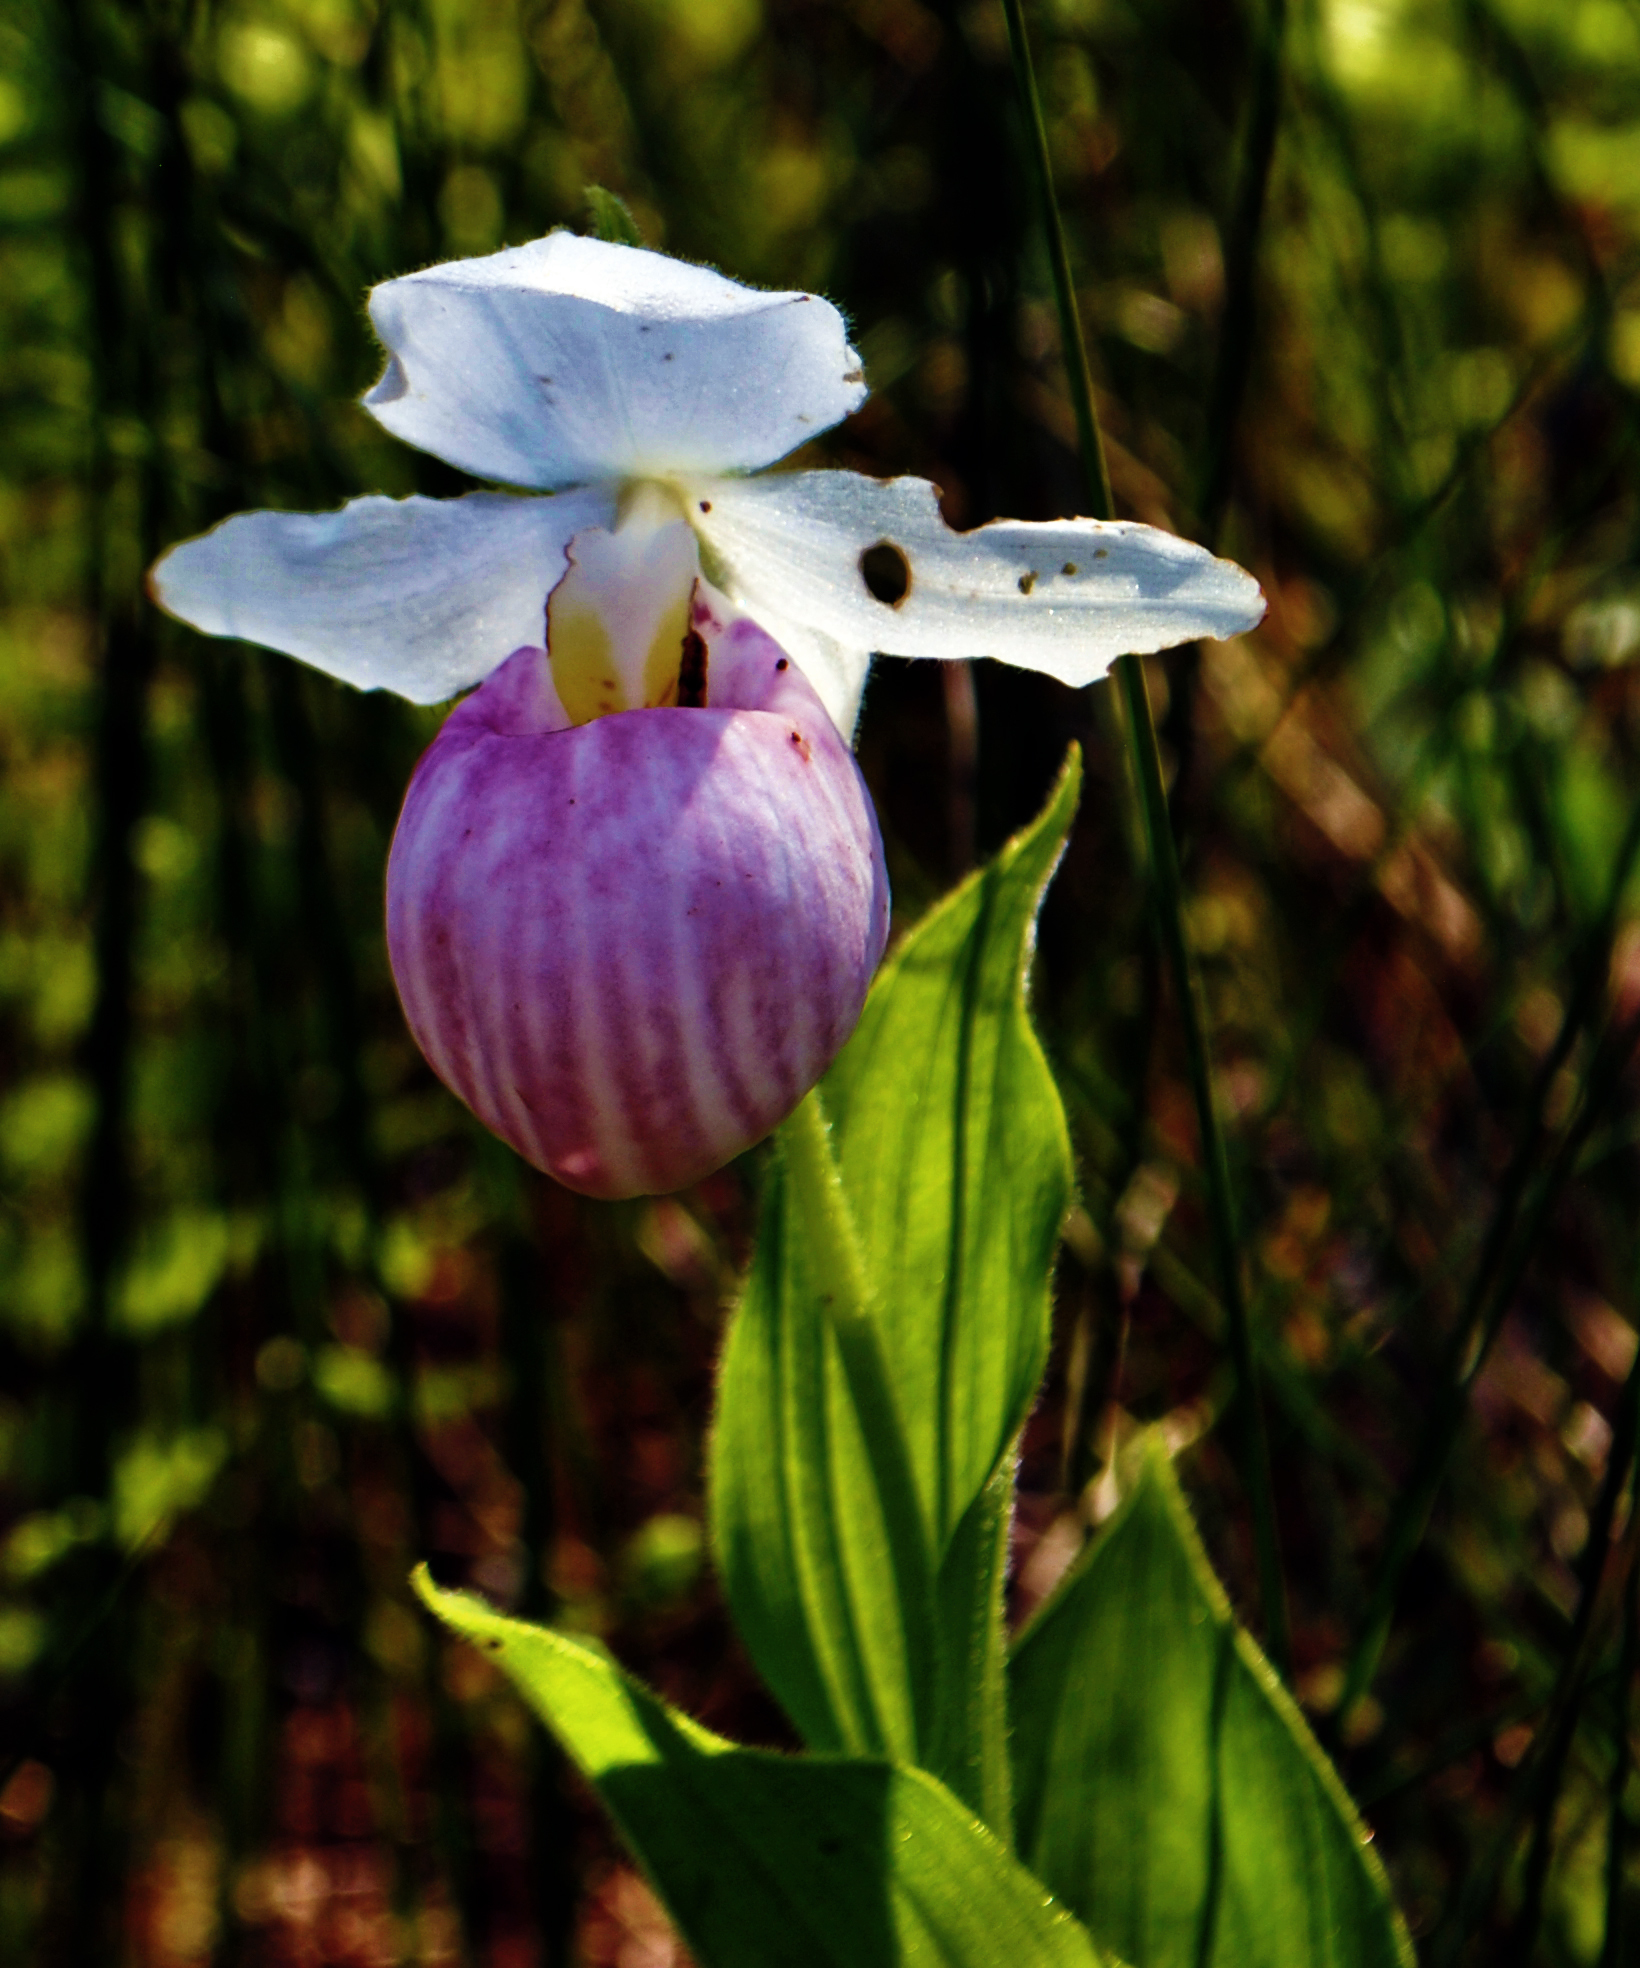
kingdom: Plantae
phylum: Tracheophyta
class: Liliopsida
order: Asparagales
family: Orchidaceae
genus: Cypripedium
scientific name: Cypripedium reginae
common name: Queen lady's-slipper
